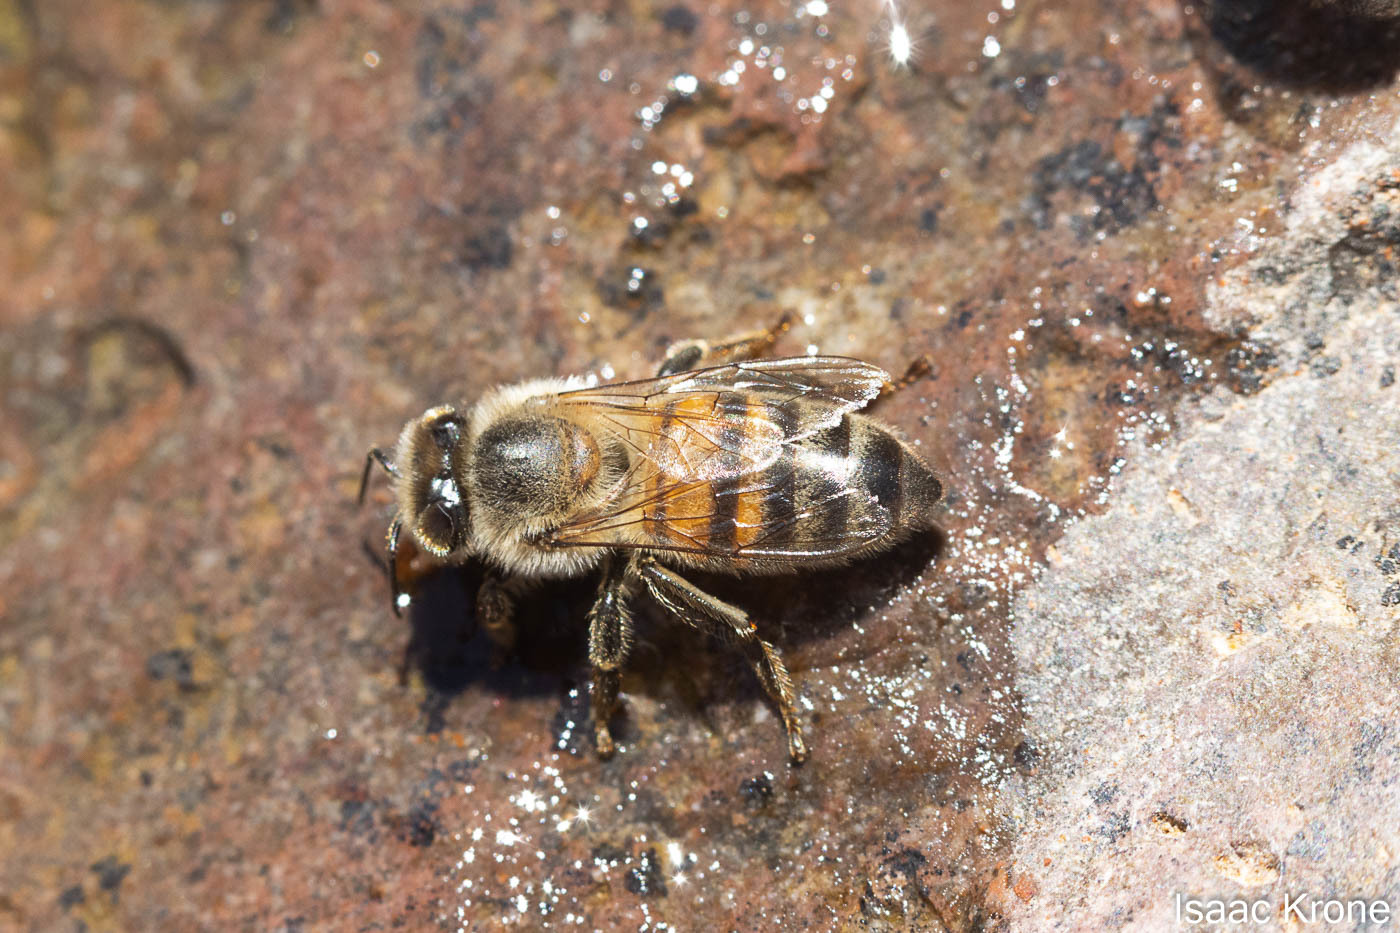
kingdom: Animalia
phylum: Arthropoda
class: Insecta
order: Hymenoptera
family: Apidae
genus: Apis
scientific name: Apis mellifera
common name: Honey bee
